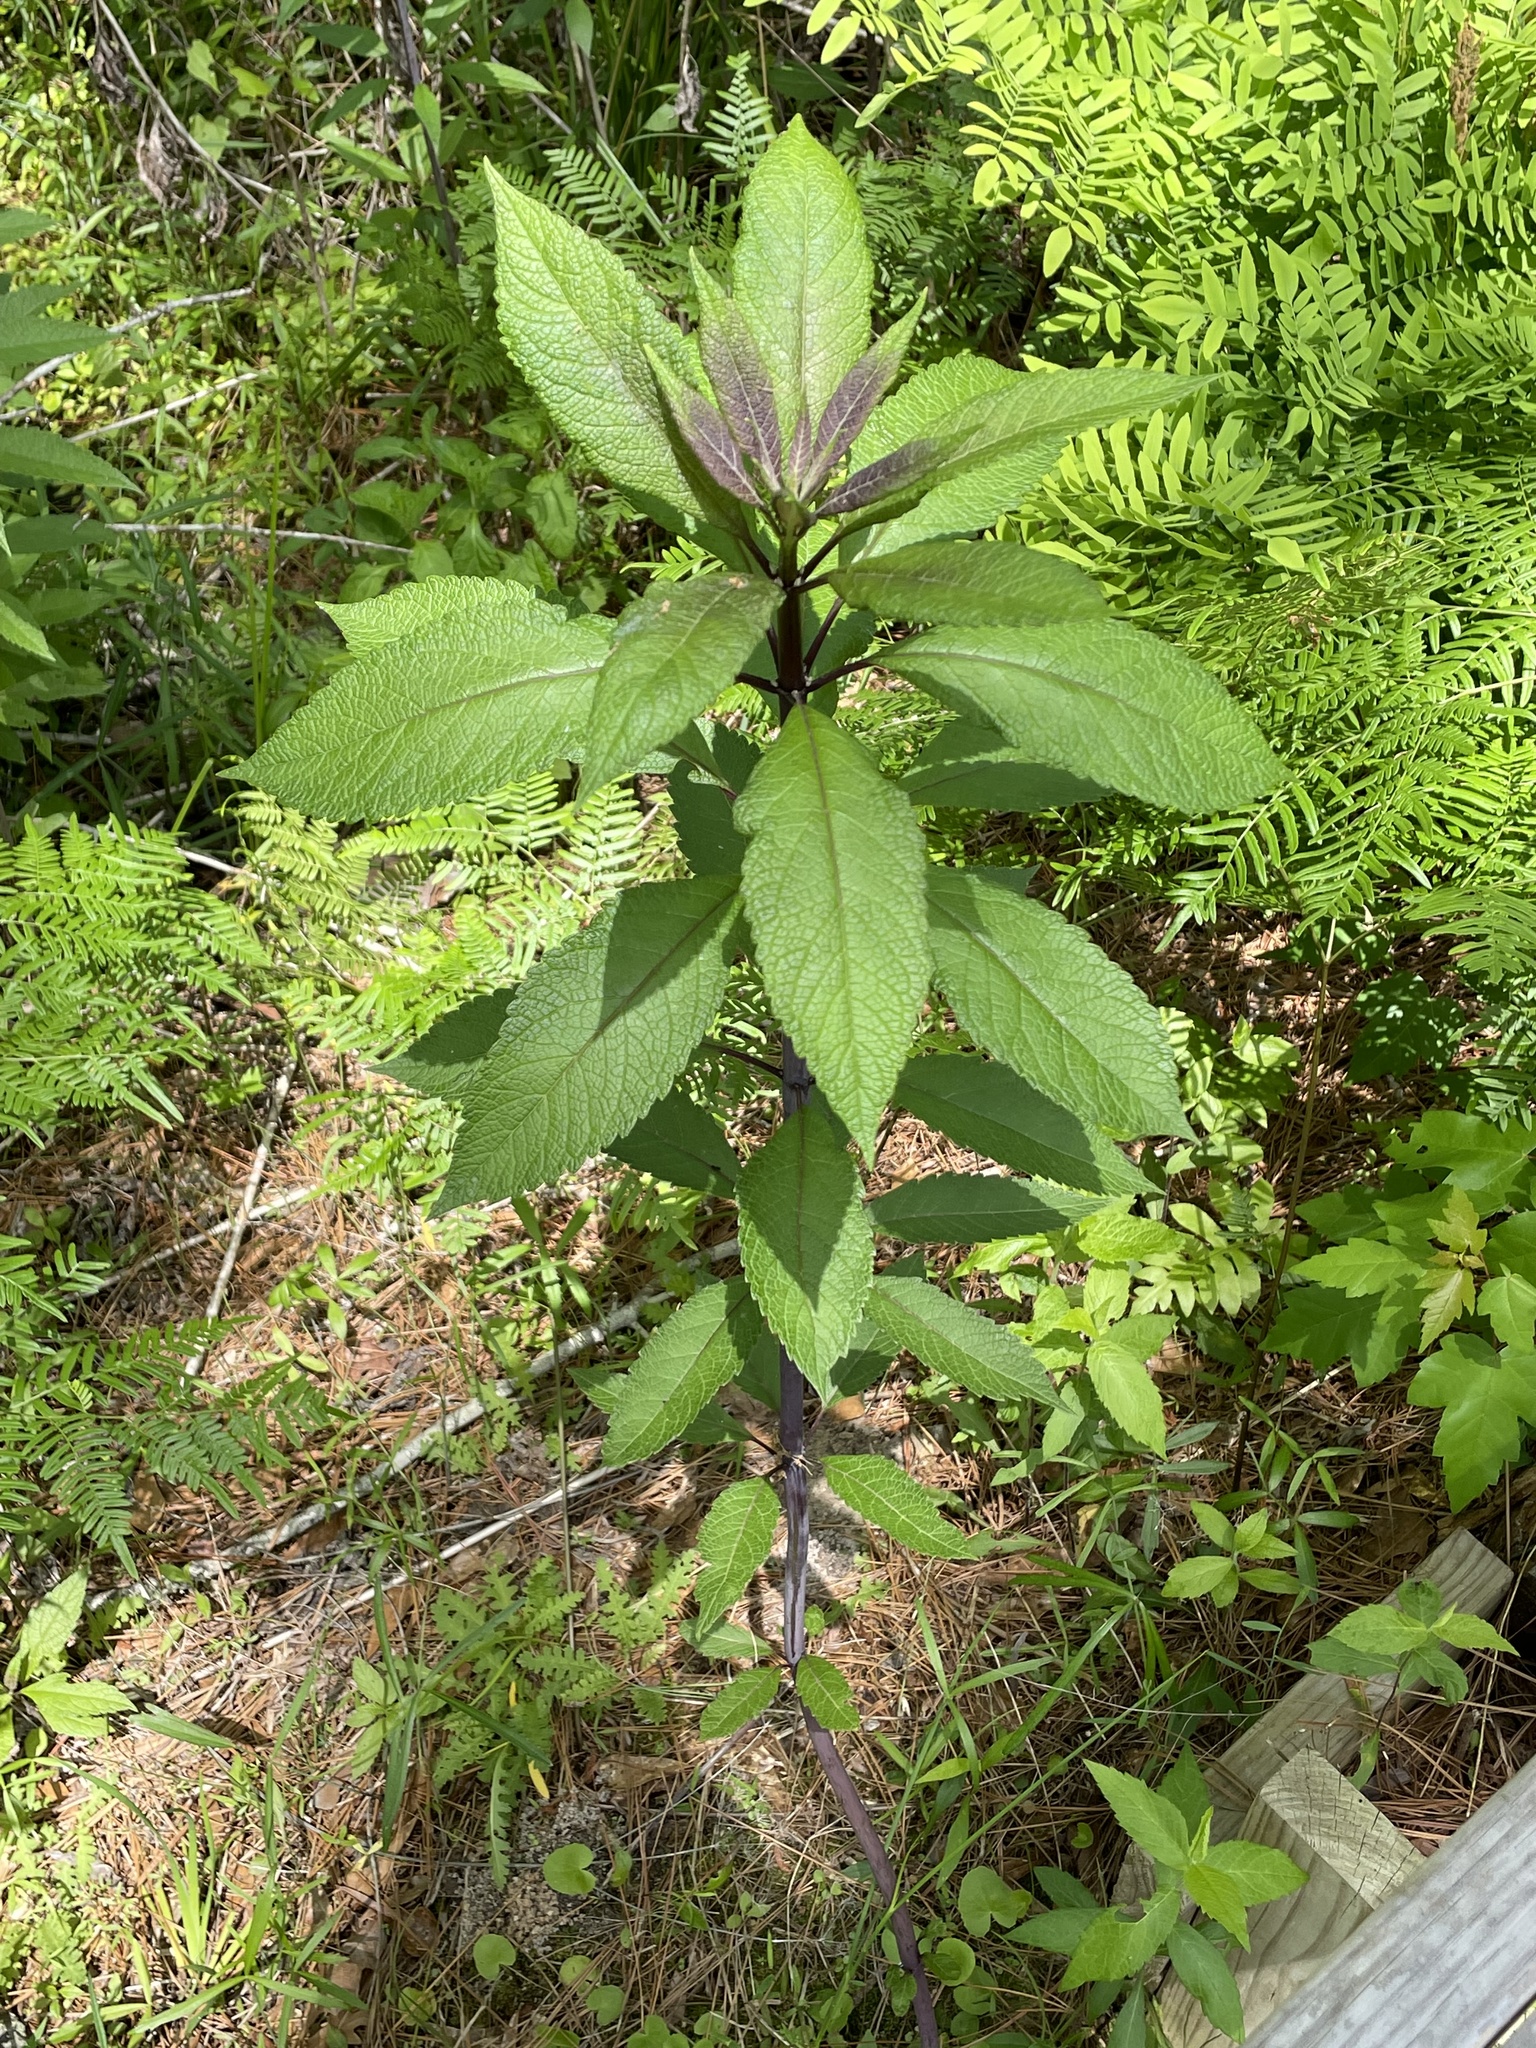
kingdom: Plantae
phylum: Tracheophyta
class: Magnoliopsida
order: Asterales
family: Asteraceae
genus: Eutrochium
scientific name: Eutrochium fistulosum
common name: Trumpetweed
